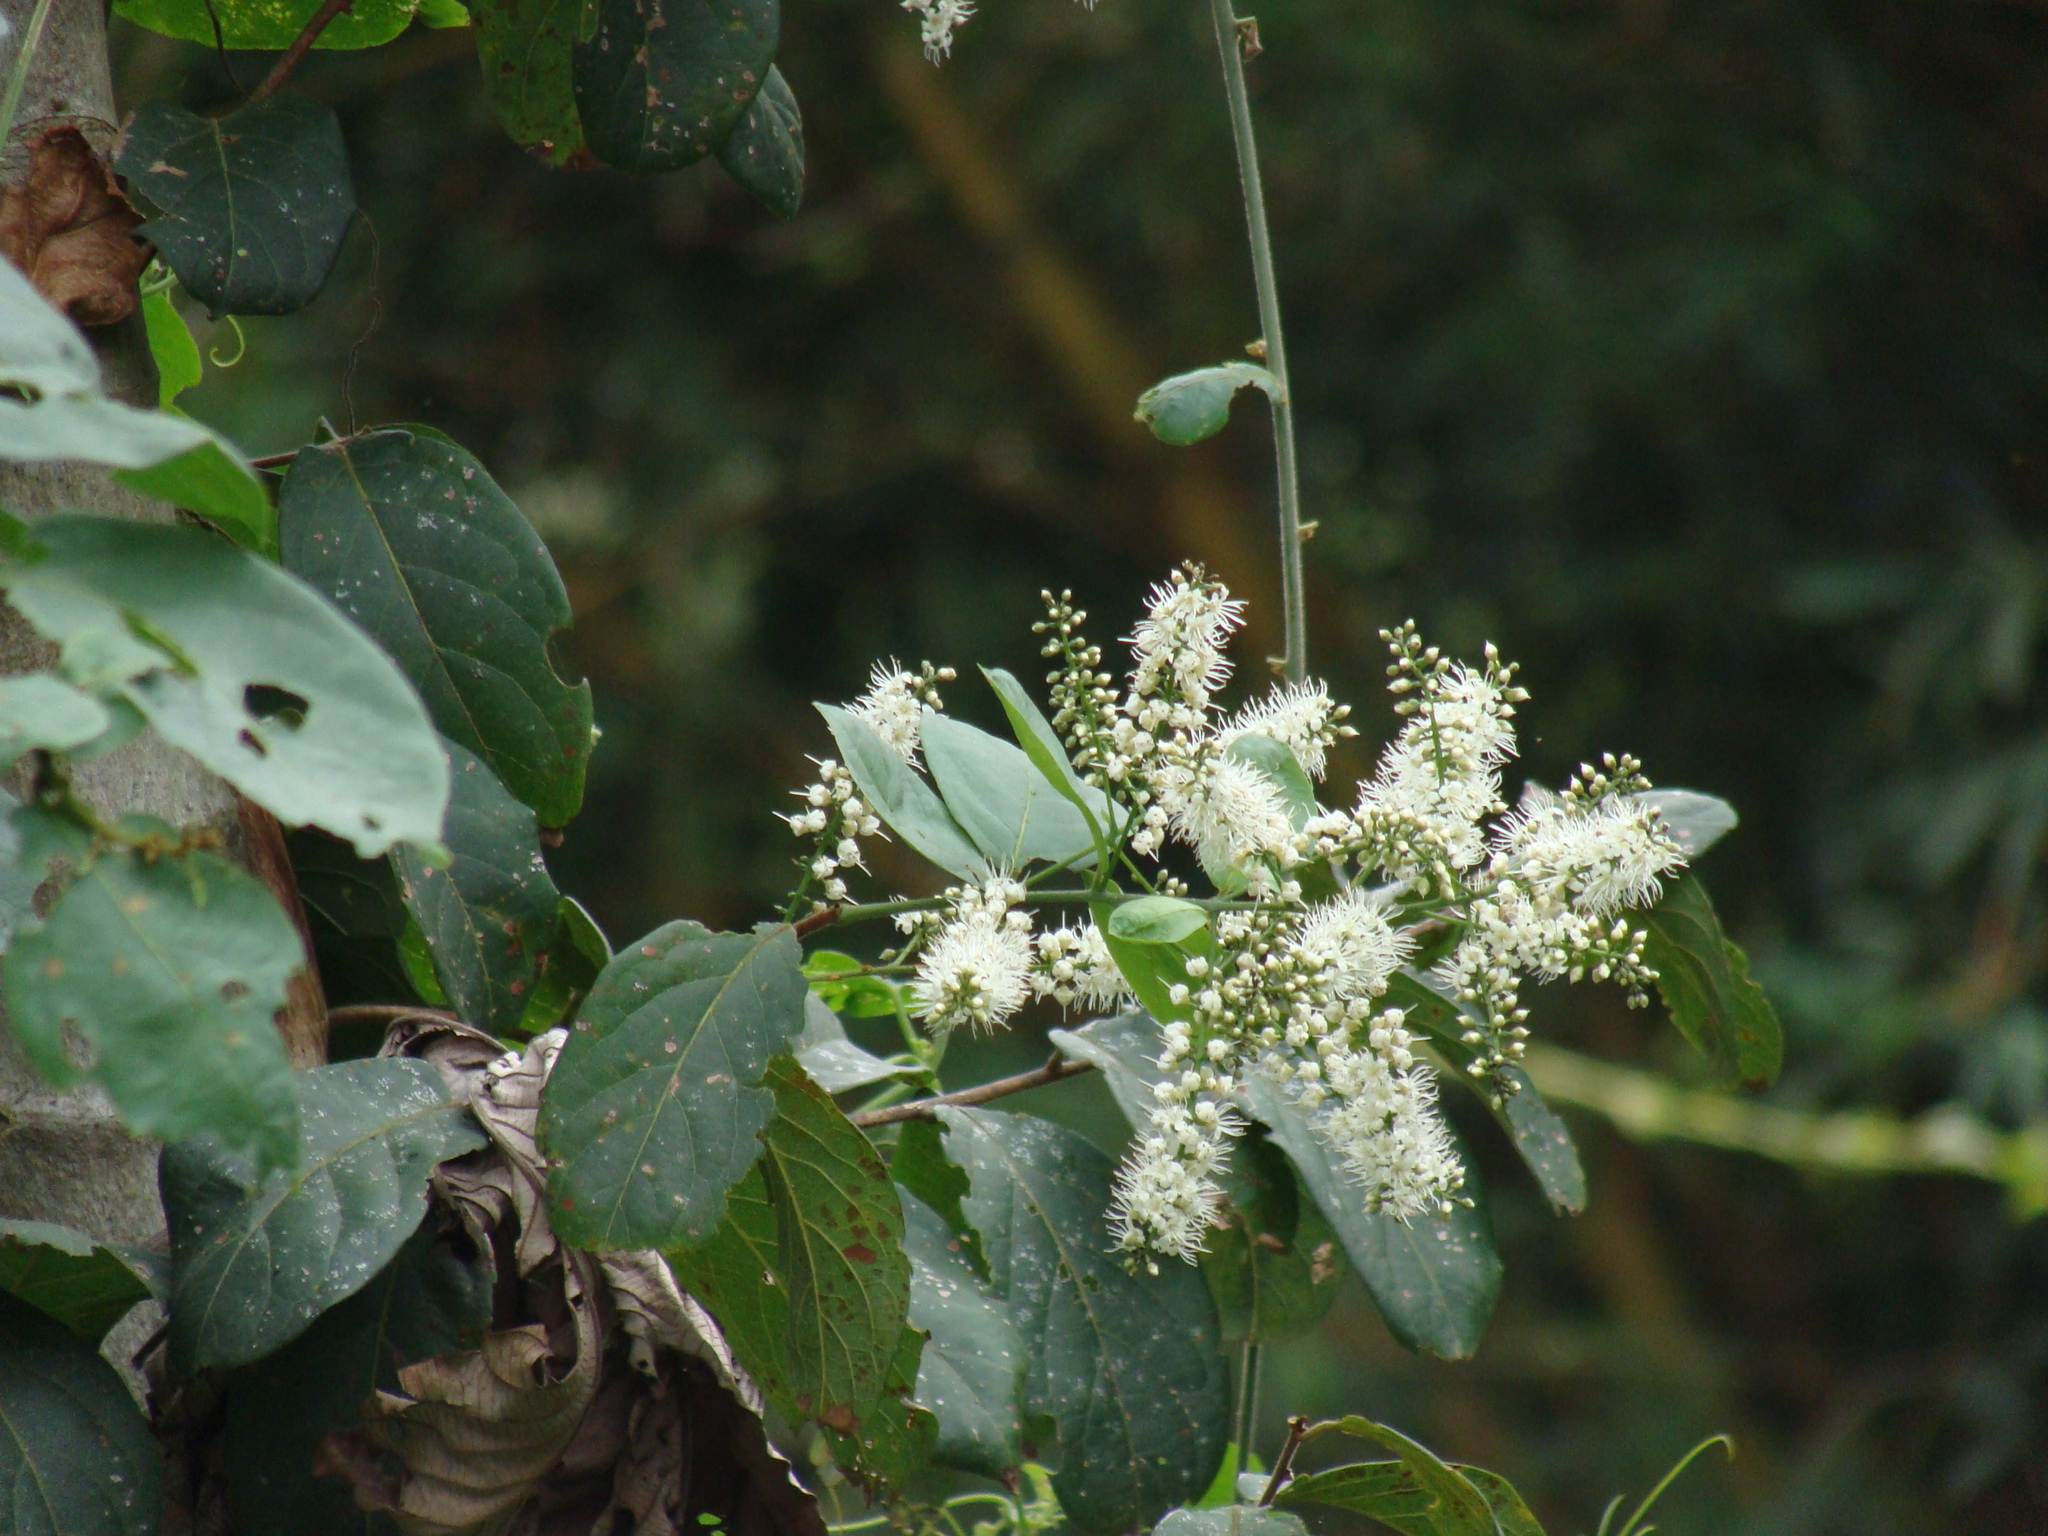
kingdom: Plantae
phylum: Tracheophyta
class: Magnoliopsida
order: Myrtales
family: Combretaceae
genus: Combretum
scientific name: Combretum laxum
